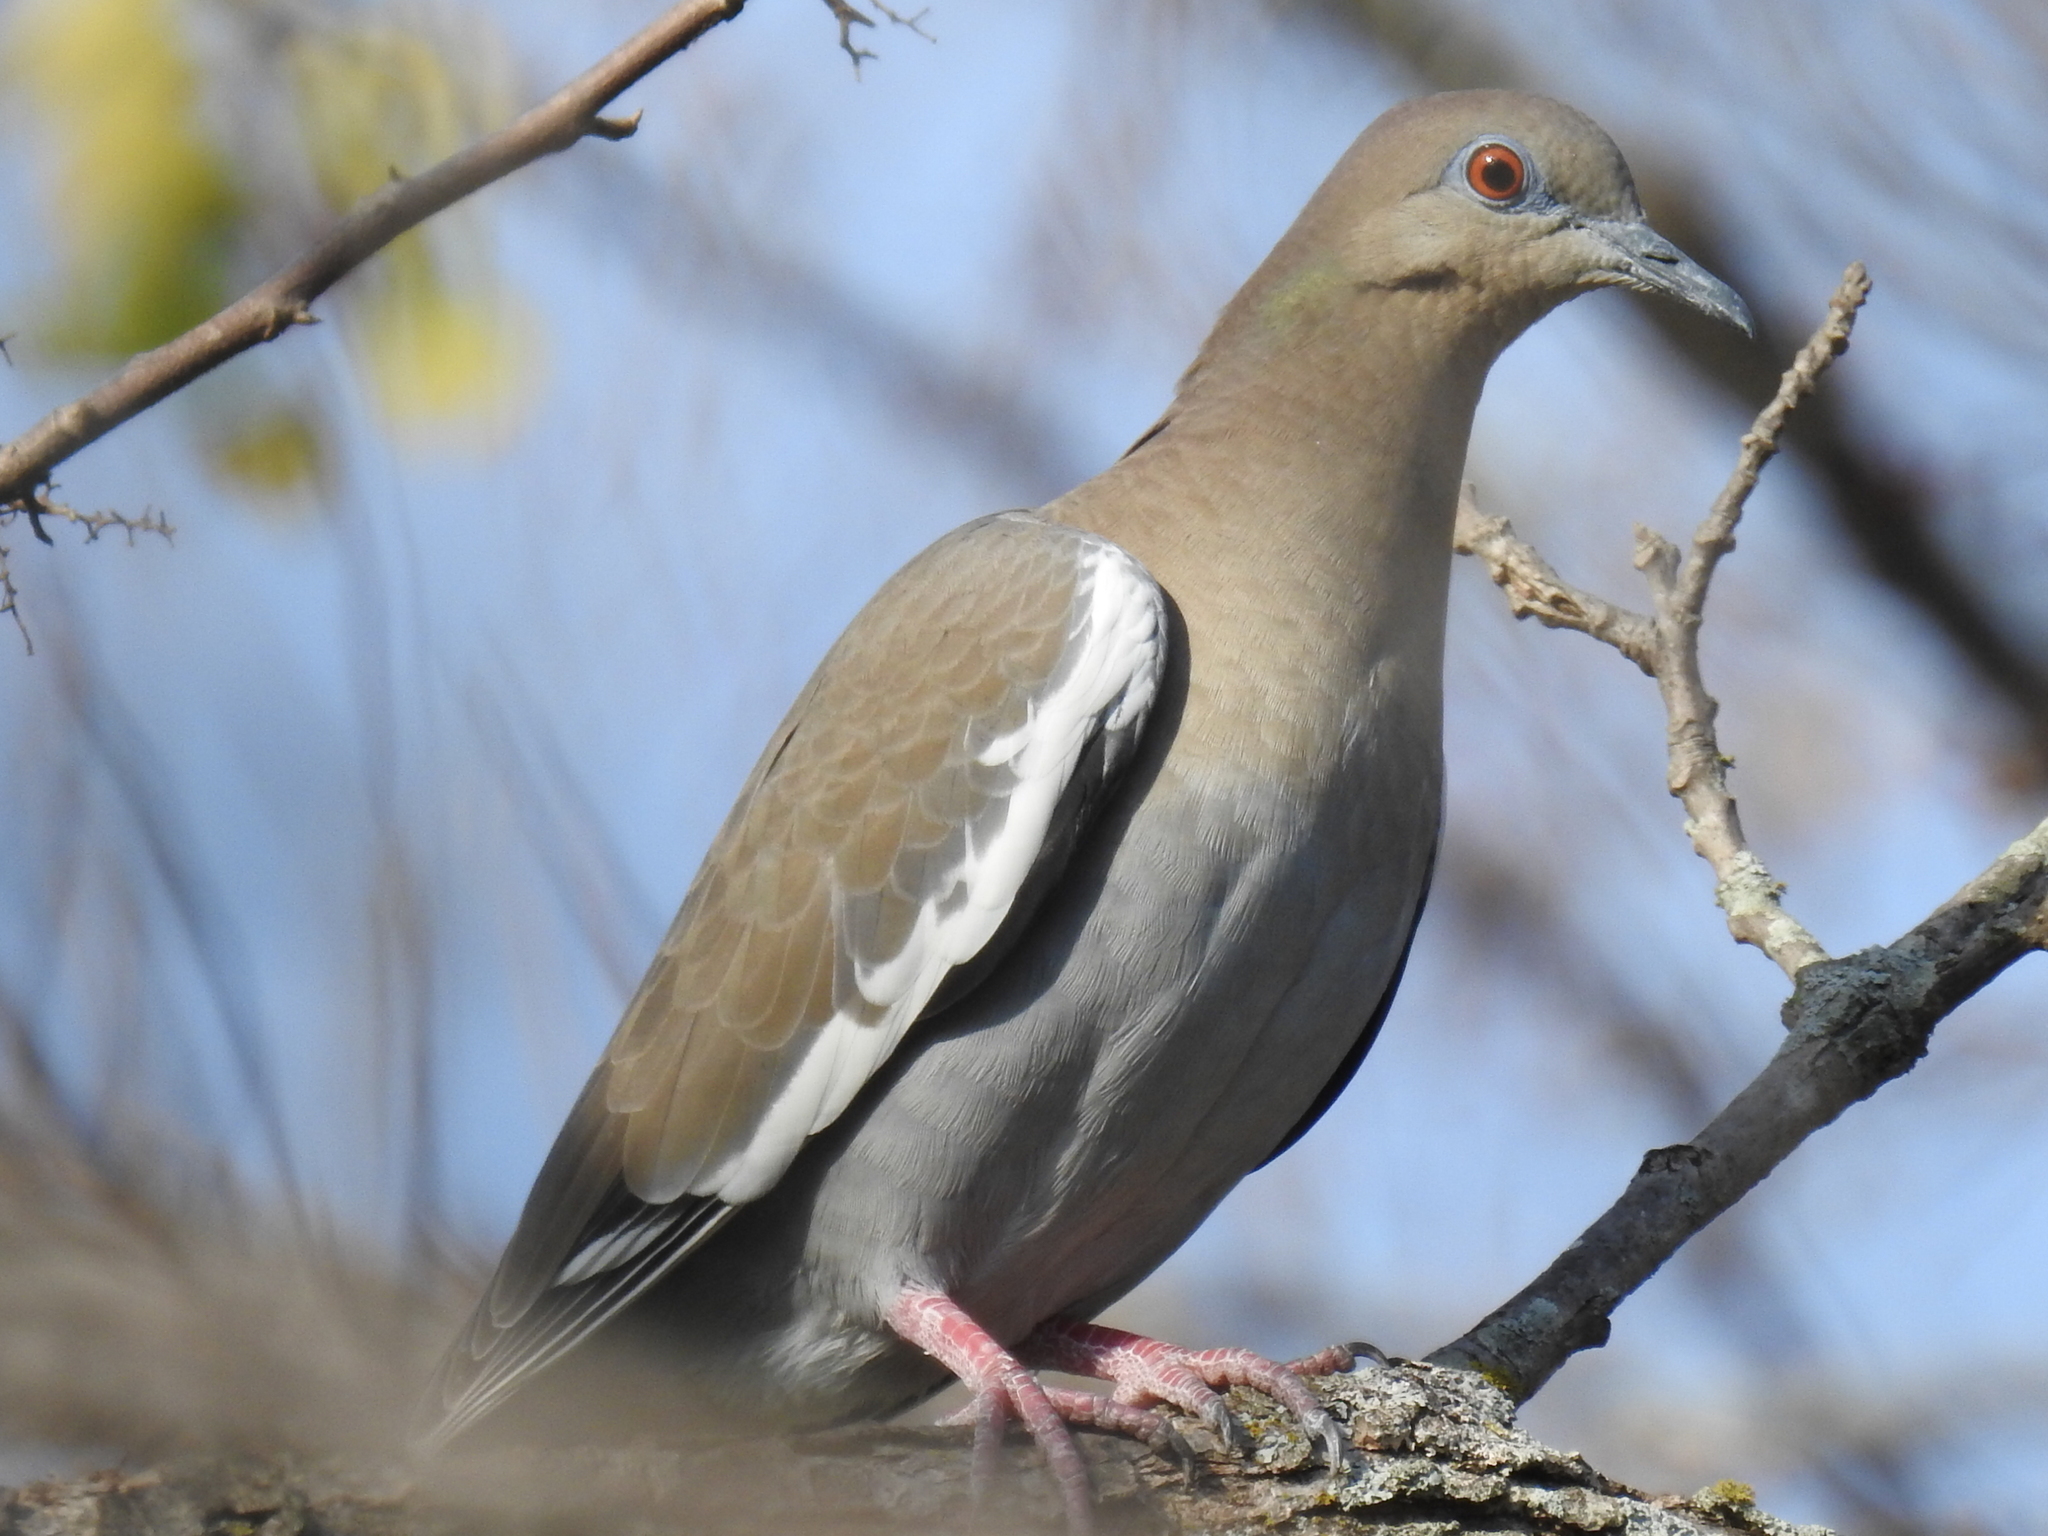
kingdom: Animalia
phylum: Chordata
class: Aves
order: Columbiformes
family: Columbidae
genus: Zenaida
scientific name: Zenaida asiatica
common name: White-winged dove
